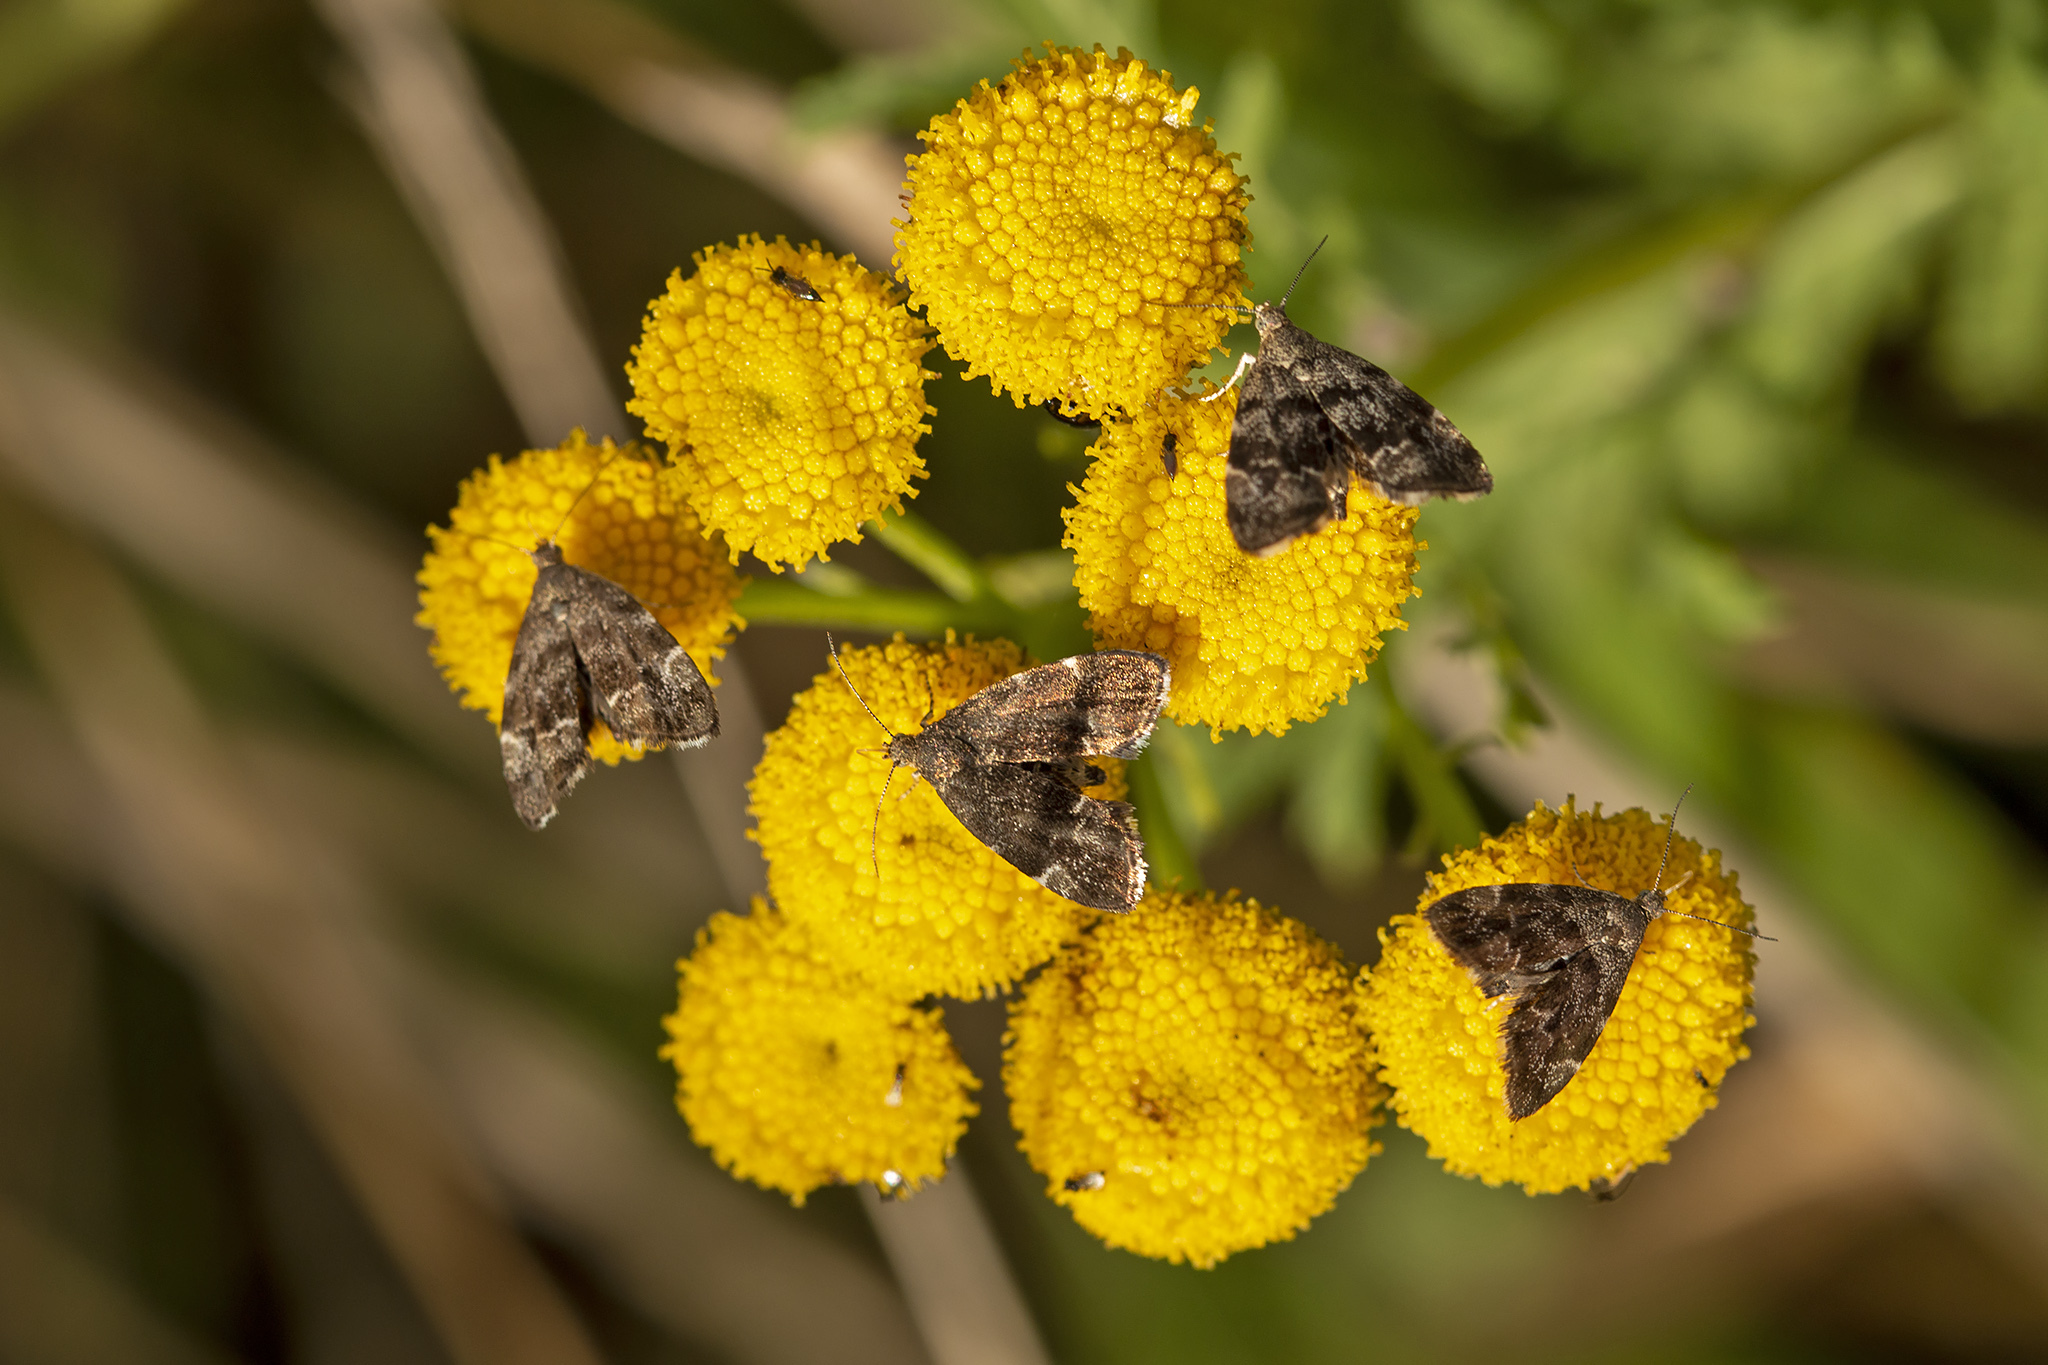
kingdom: Animalia
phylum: Arthropoda
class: Insecta
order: Lepidoptera
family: Choreutidae
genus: Anthophila
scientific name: Anthophila fabriciana
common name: Nettle-tap
